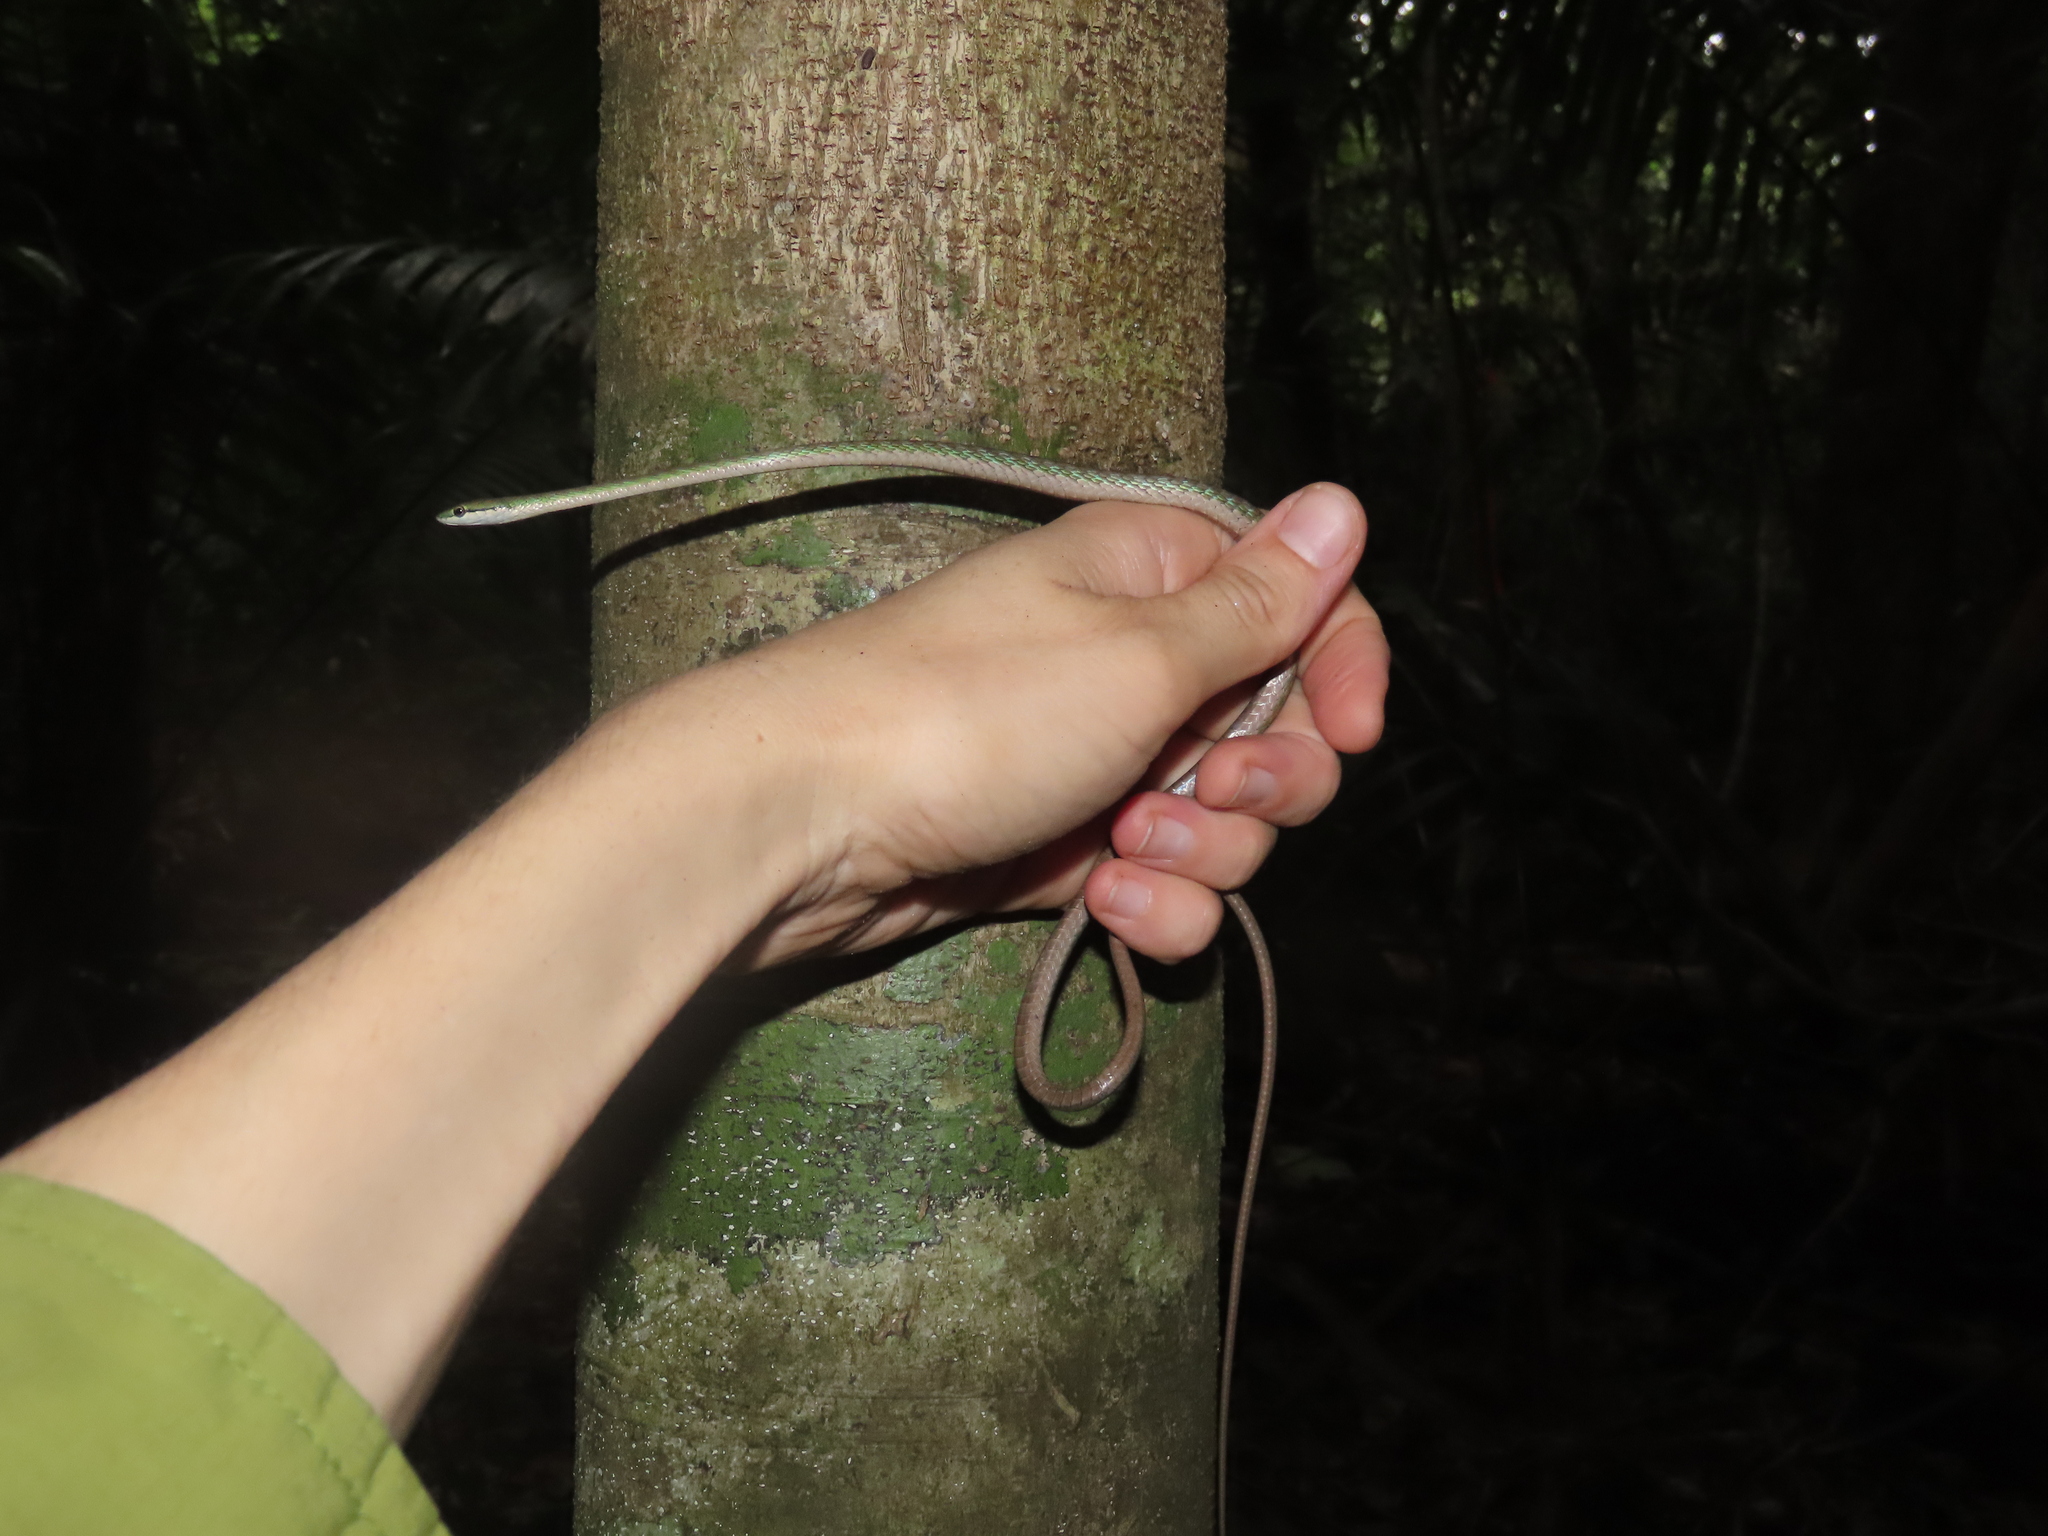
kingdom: Animalia
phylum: Chordata
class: Squamata
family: Colubridae
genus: Leptophis
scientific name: Leptophis nebulosus
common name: Oliver's parrot snake
